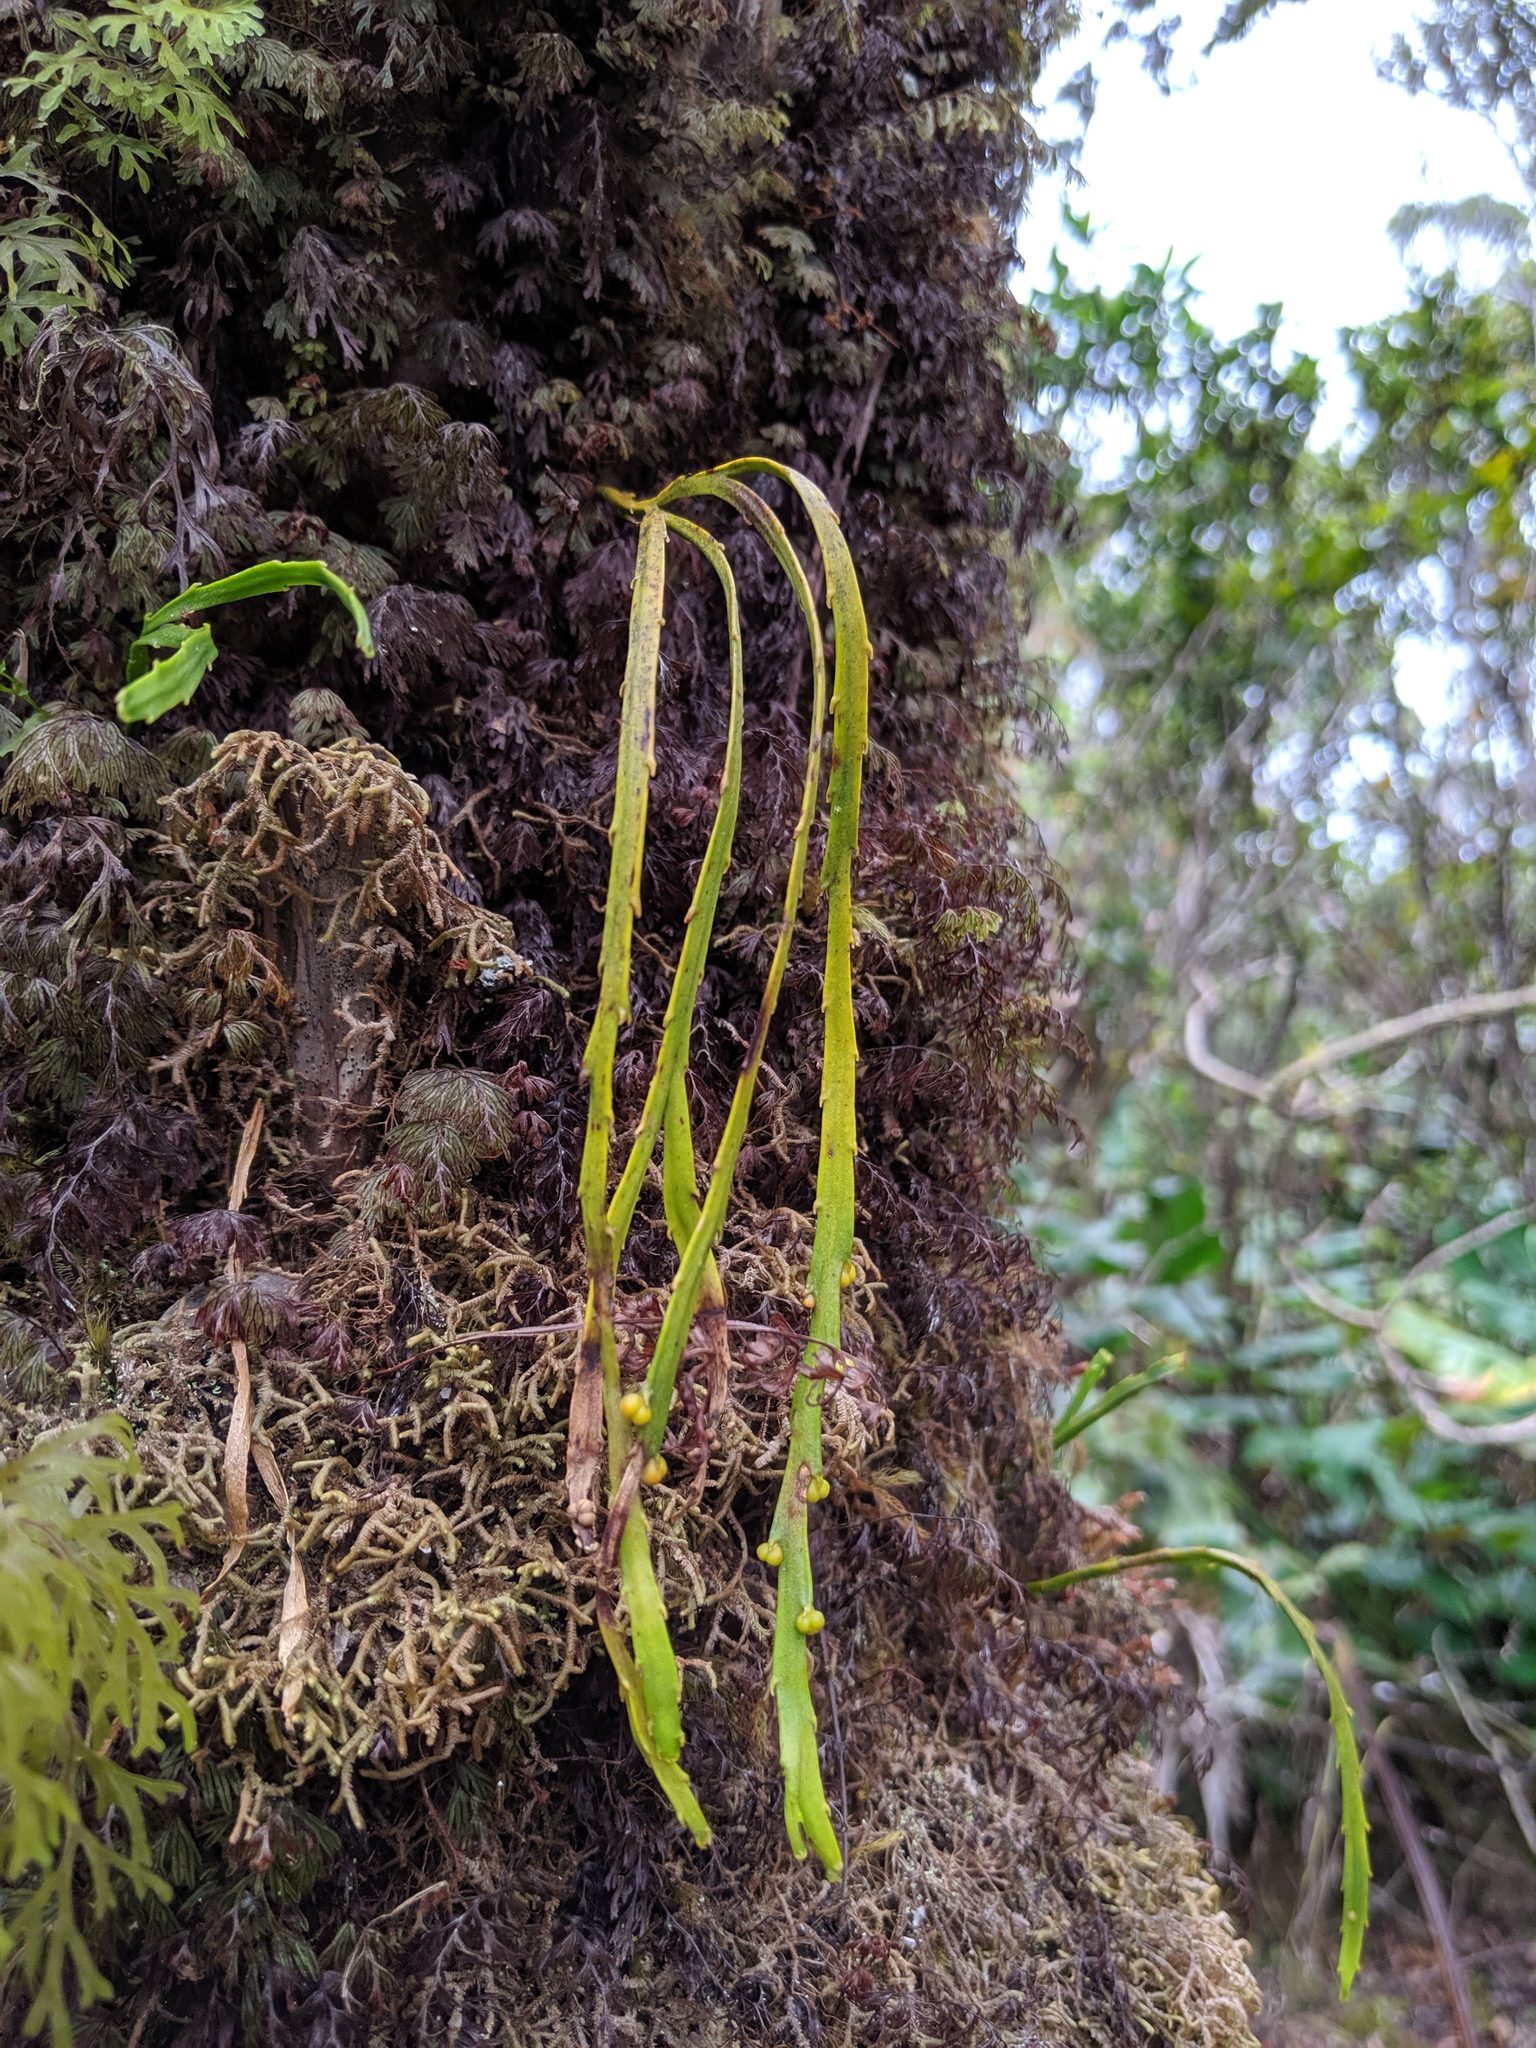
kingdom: Plantae
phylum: Tracheophyta
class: Polypodiopsida
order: Psilotales
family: Psilotaceae
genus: Psilotum
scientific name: Psilotum complanatum
